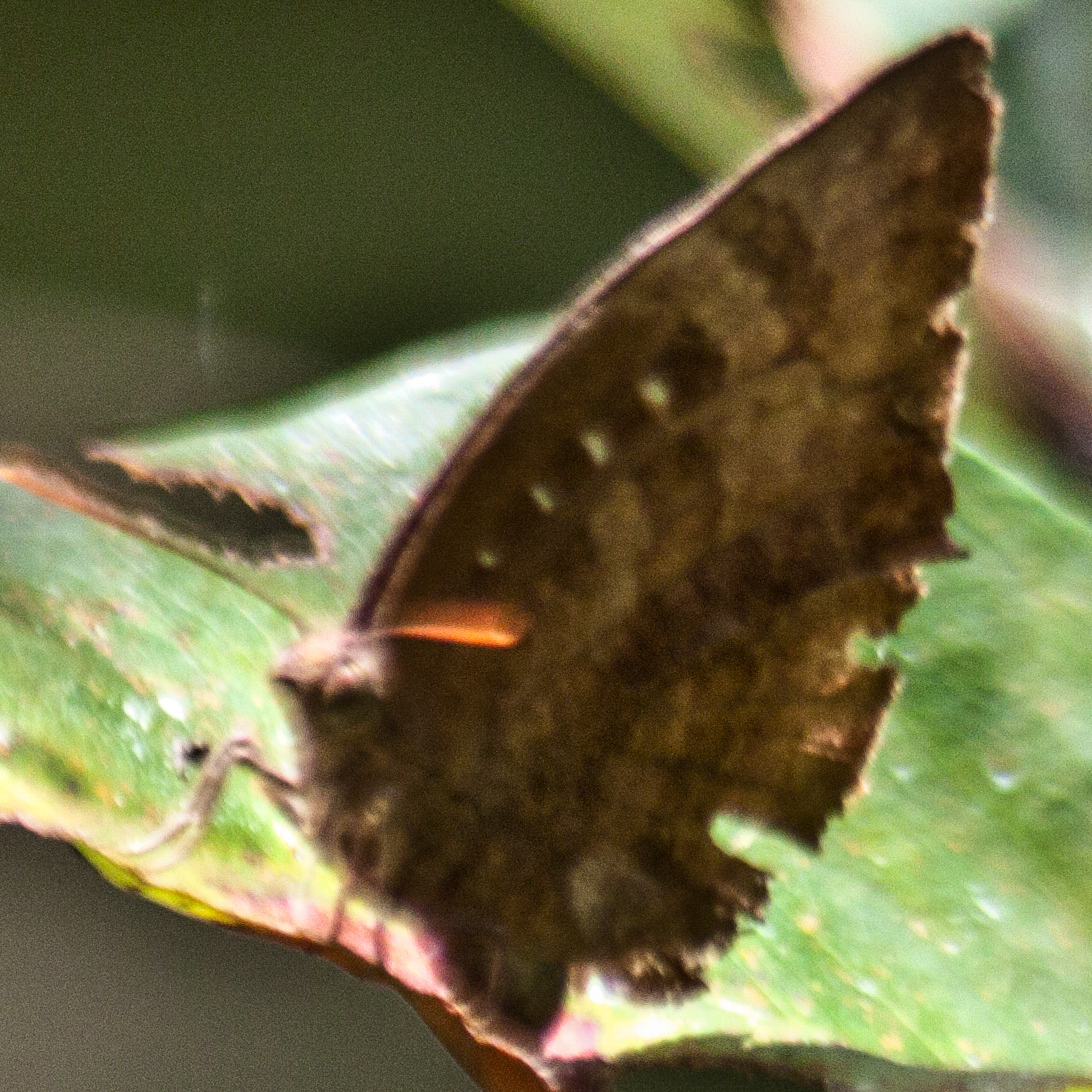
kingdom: Animalia
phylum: Arthropoda
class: Insecta
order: Lepidoptera
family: Lycaenidae
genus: Arhopala
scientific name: Arhopala centaurus
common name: Dull oak-blue
